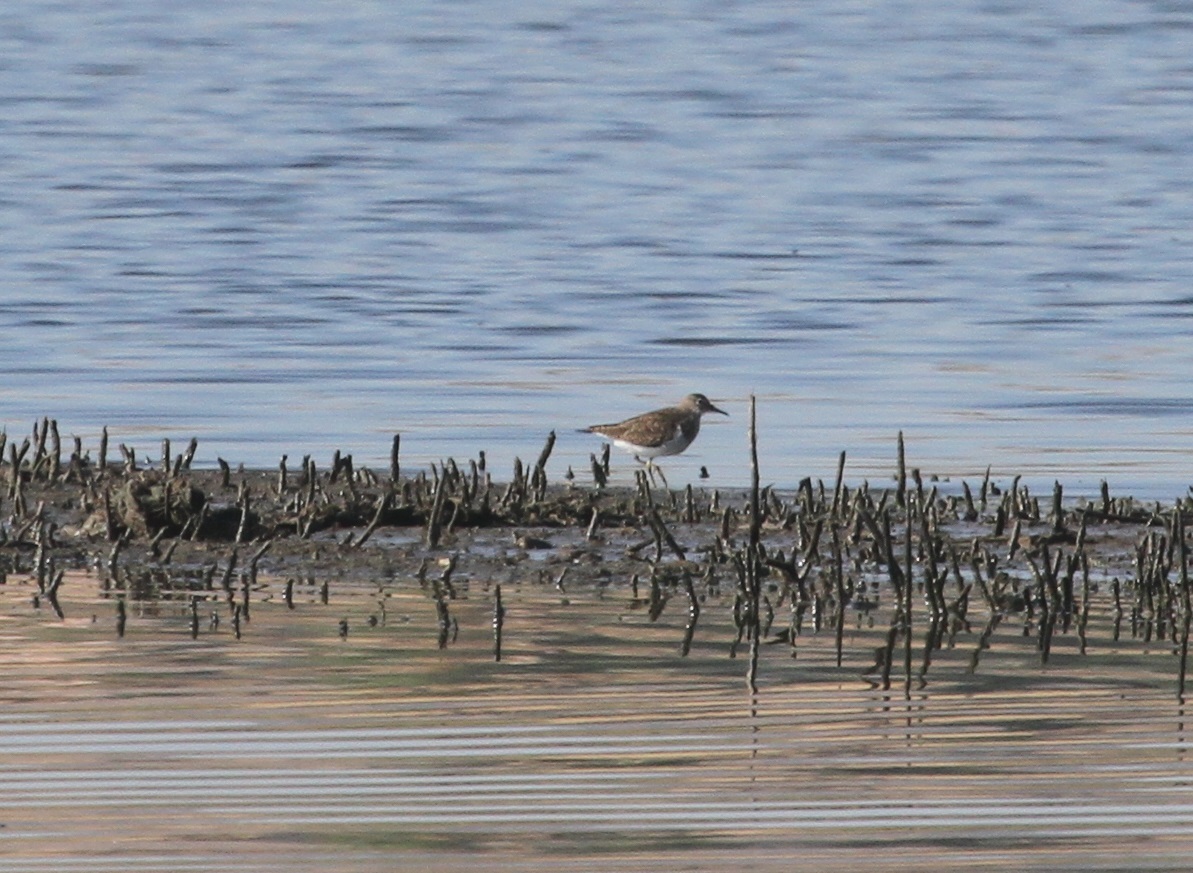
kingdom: Animalia
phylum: Chordata
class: Aves
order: Charadriiformes
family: Scolopacidae
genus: Actitis
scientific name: Actitis hypoleucos
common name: Common sandpiper
